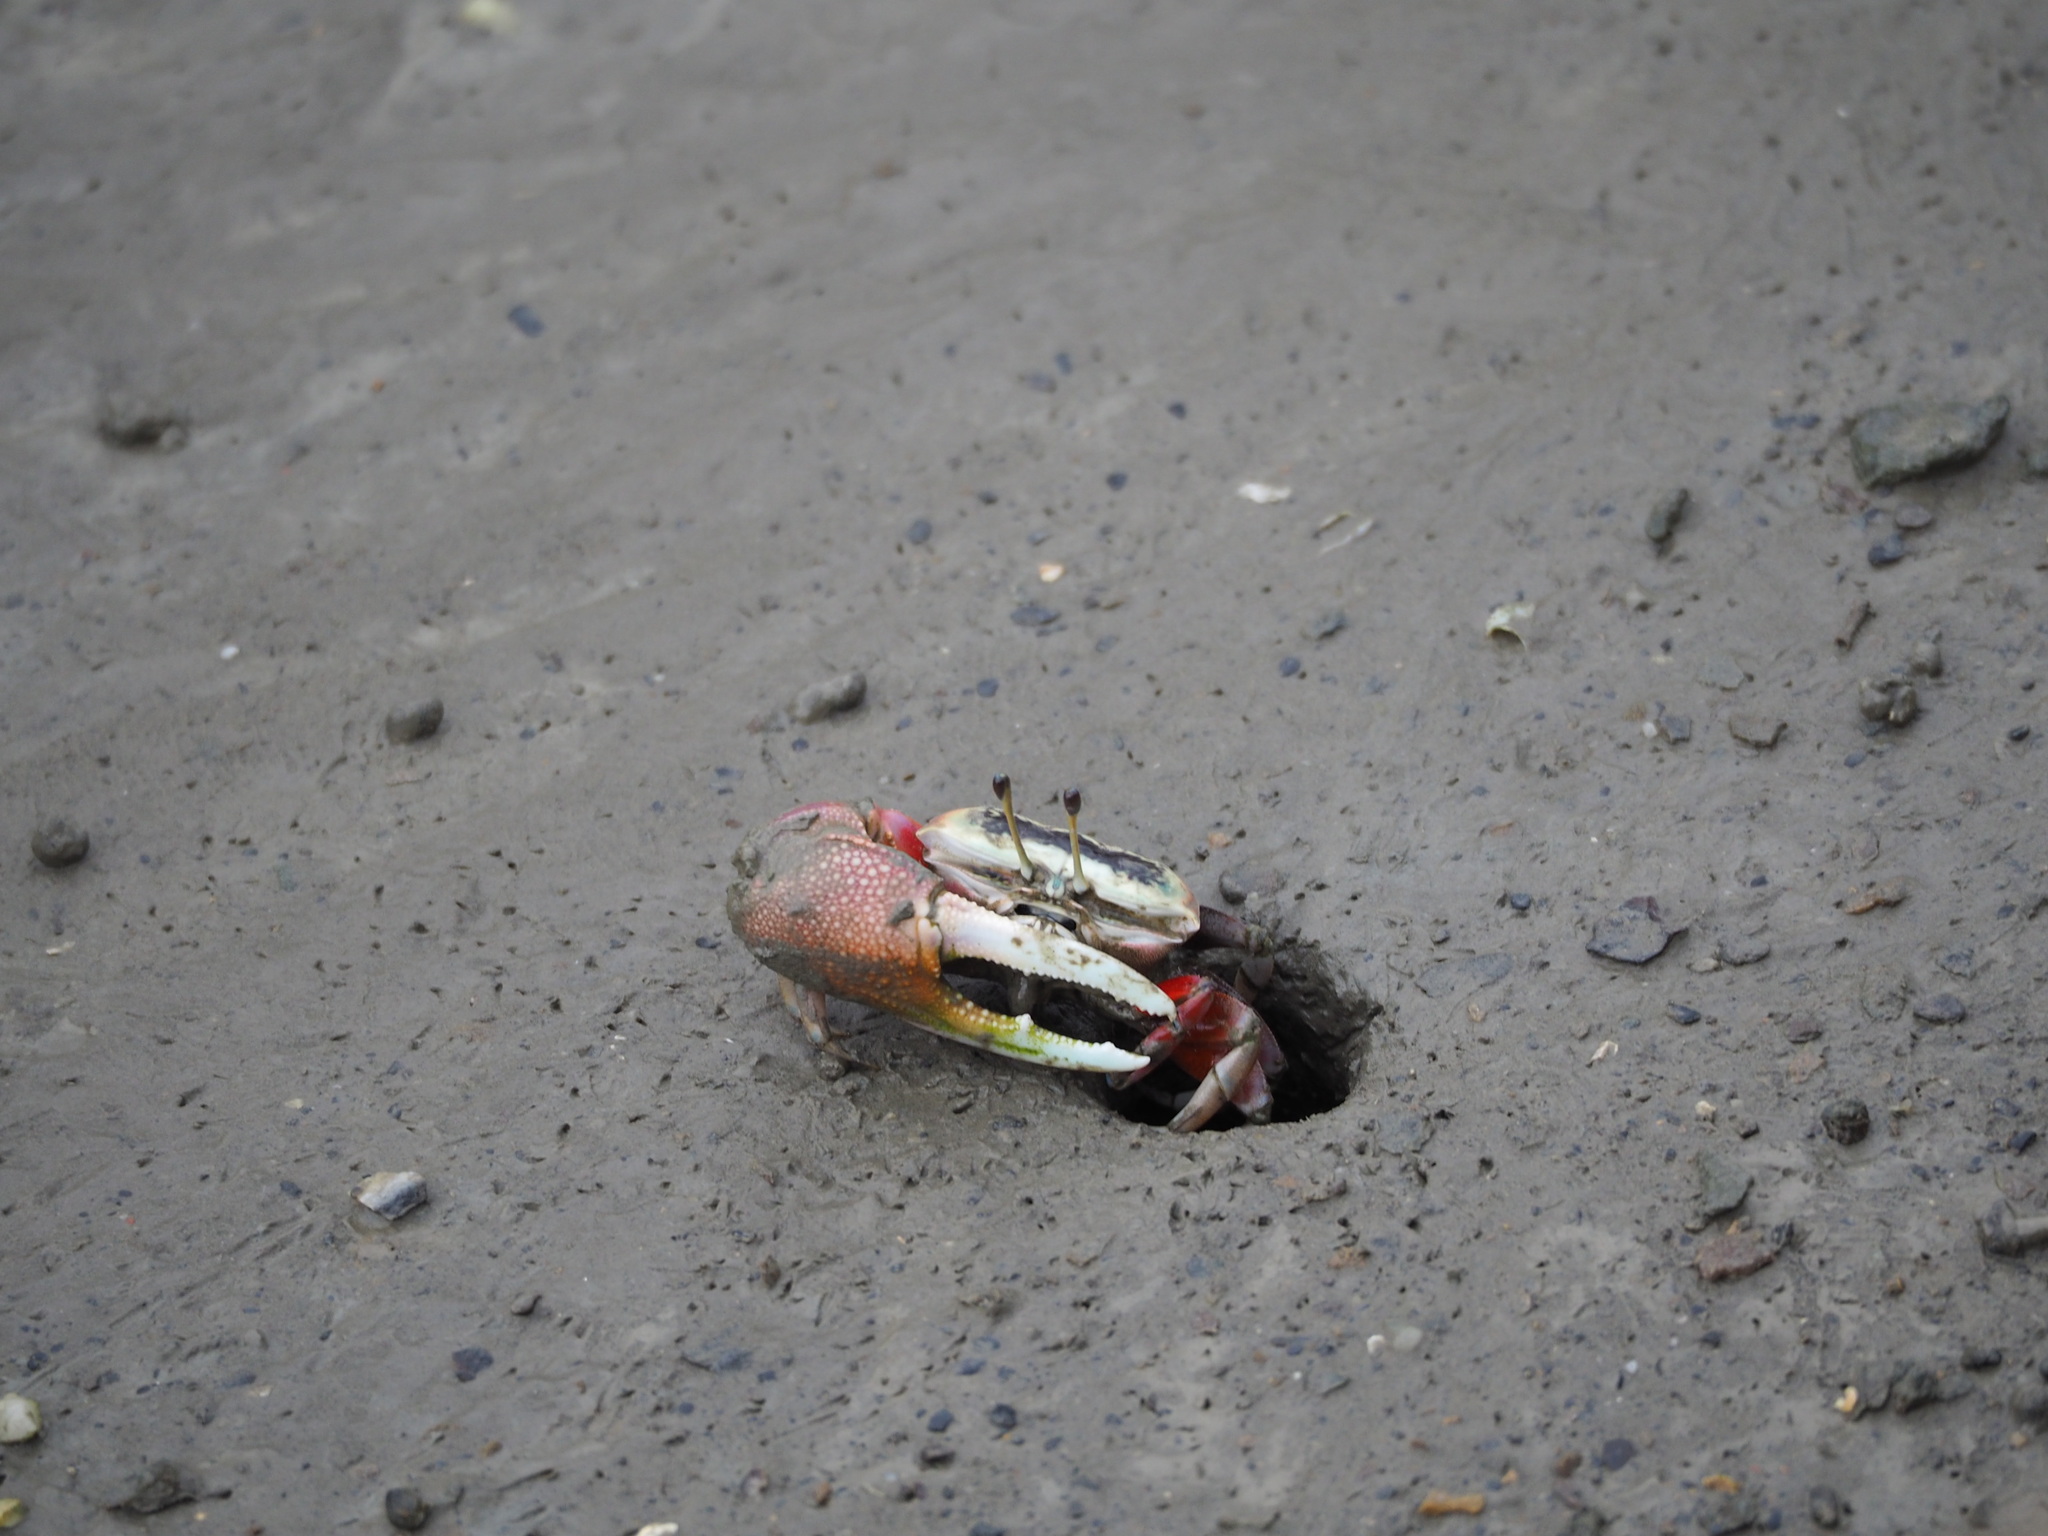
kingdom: Animalia
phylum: Arthropoda
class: Malacostraca
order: Decapoda
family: Ocypodidae
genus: Tubuca
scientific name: Tubuca arcuata
